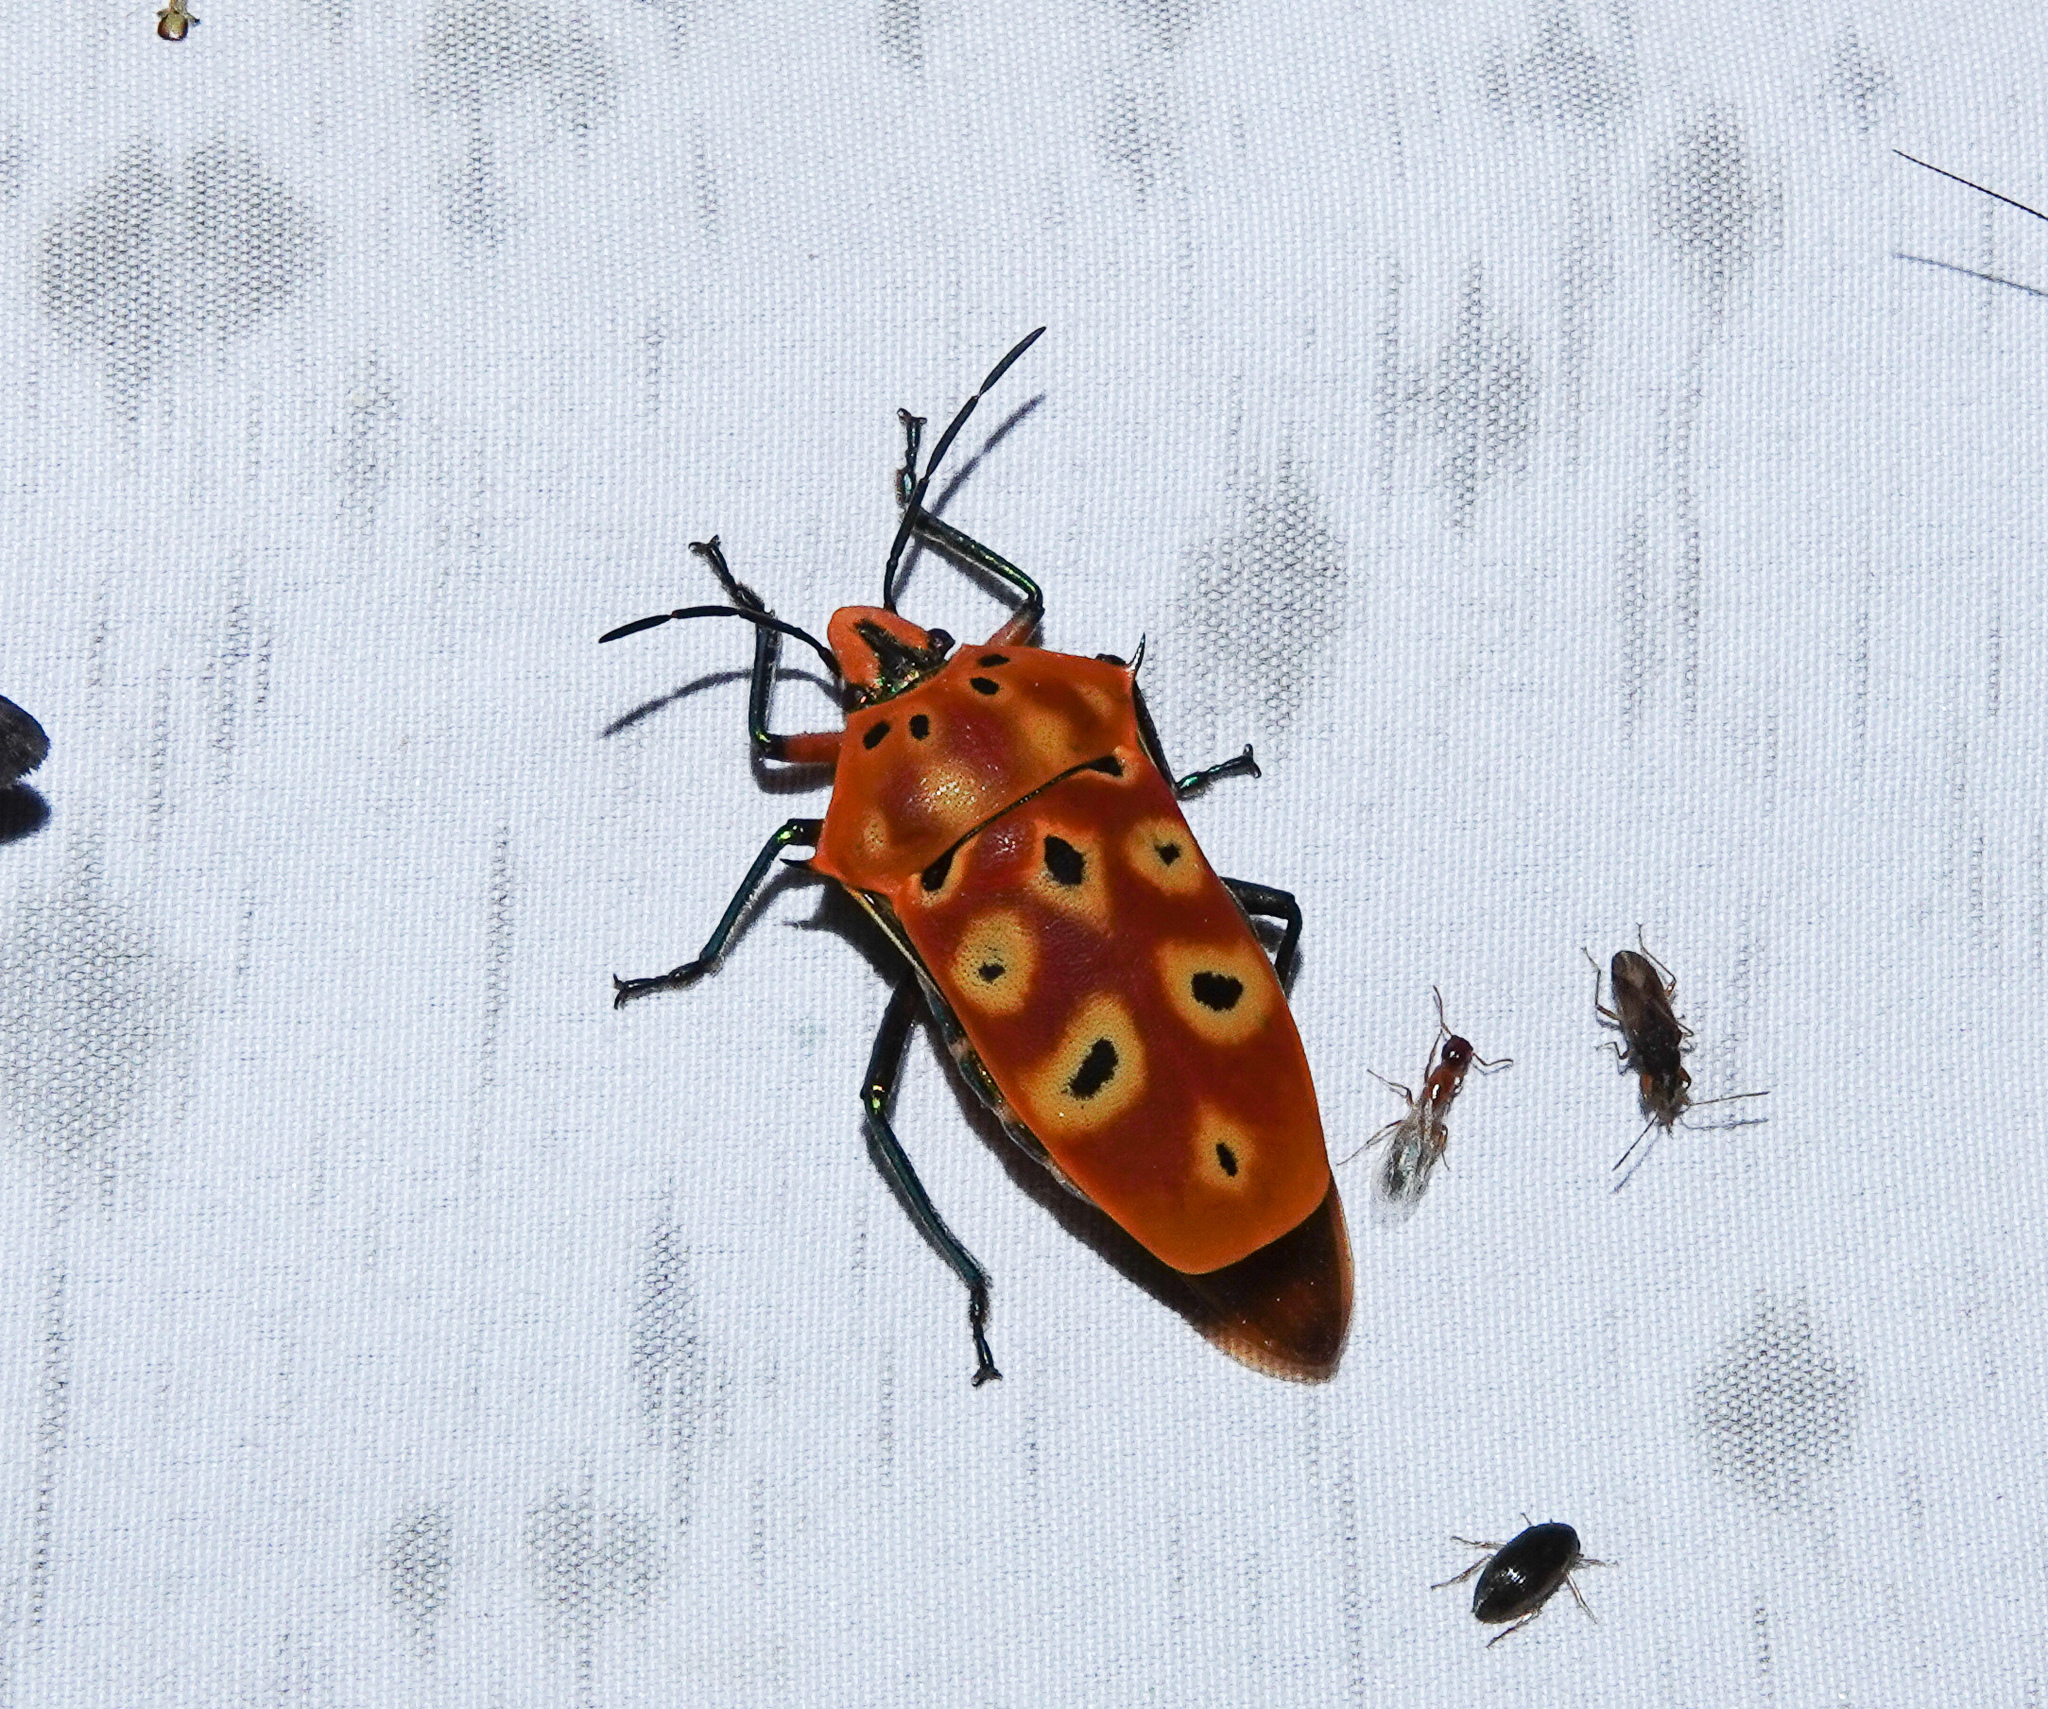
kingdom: Animalia
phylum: Arthropoda
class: Insecta
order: Hemiptera
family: Scutelleridae
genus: Cantao
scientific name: Cantao ocellatus
